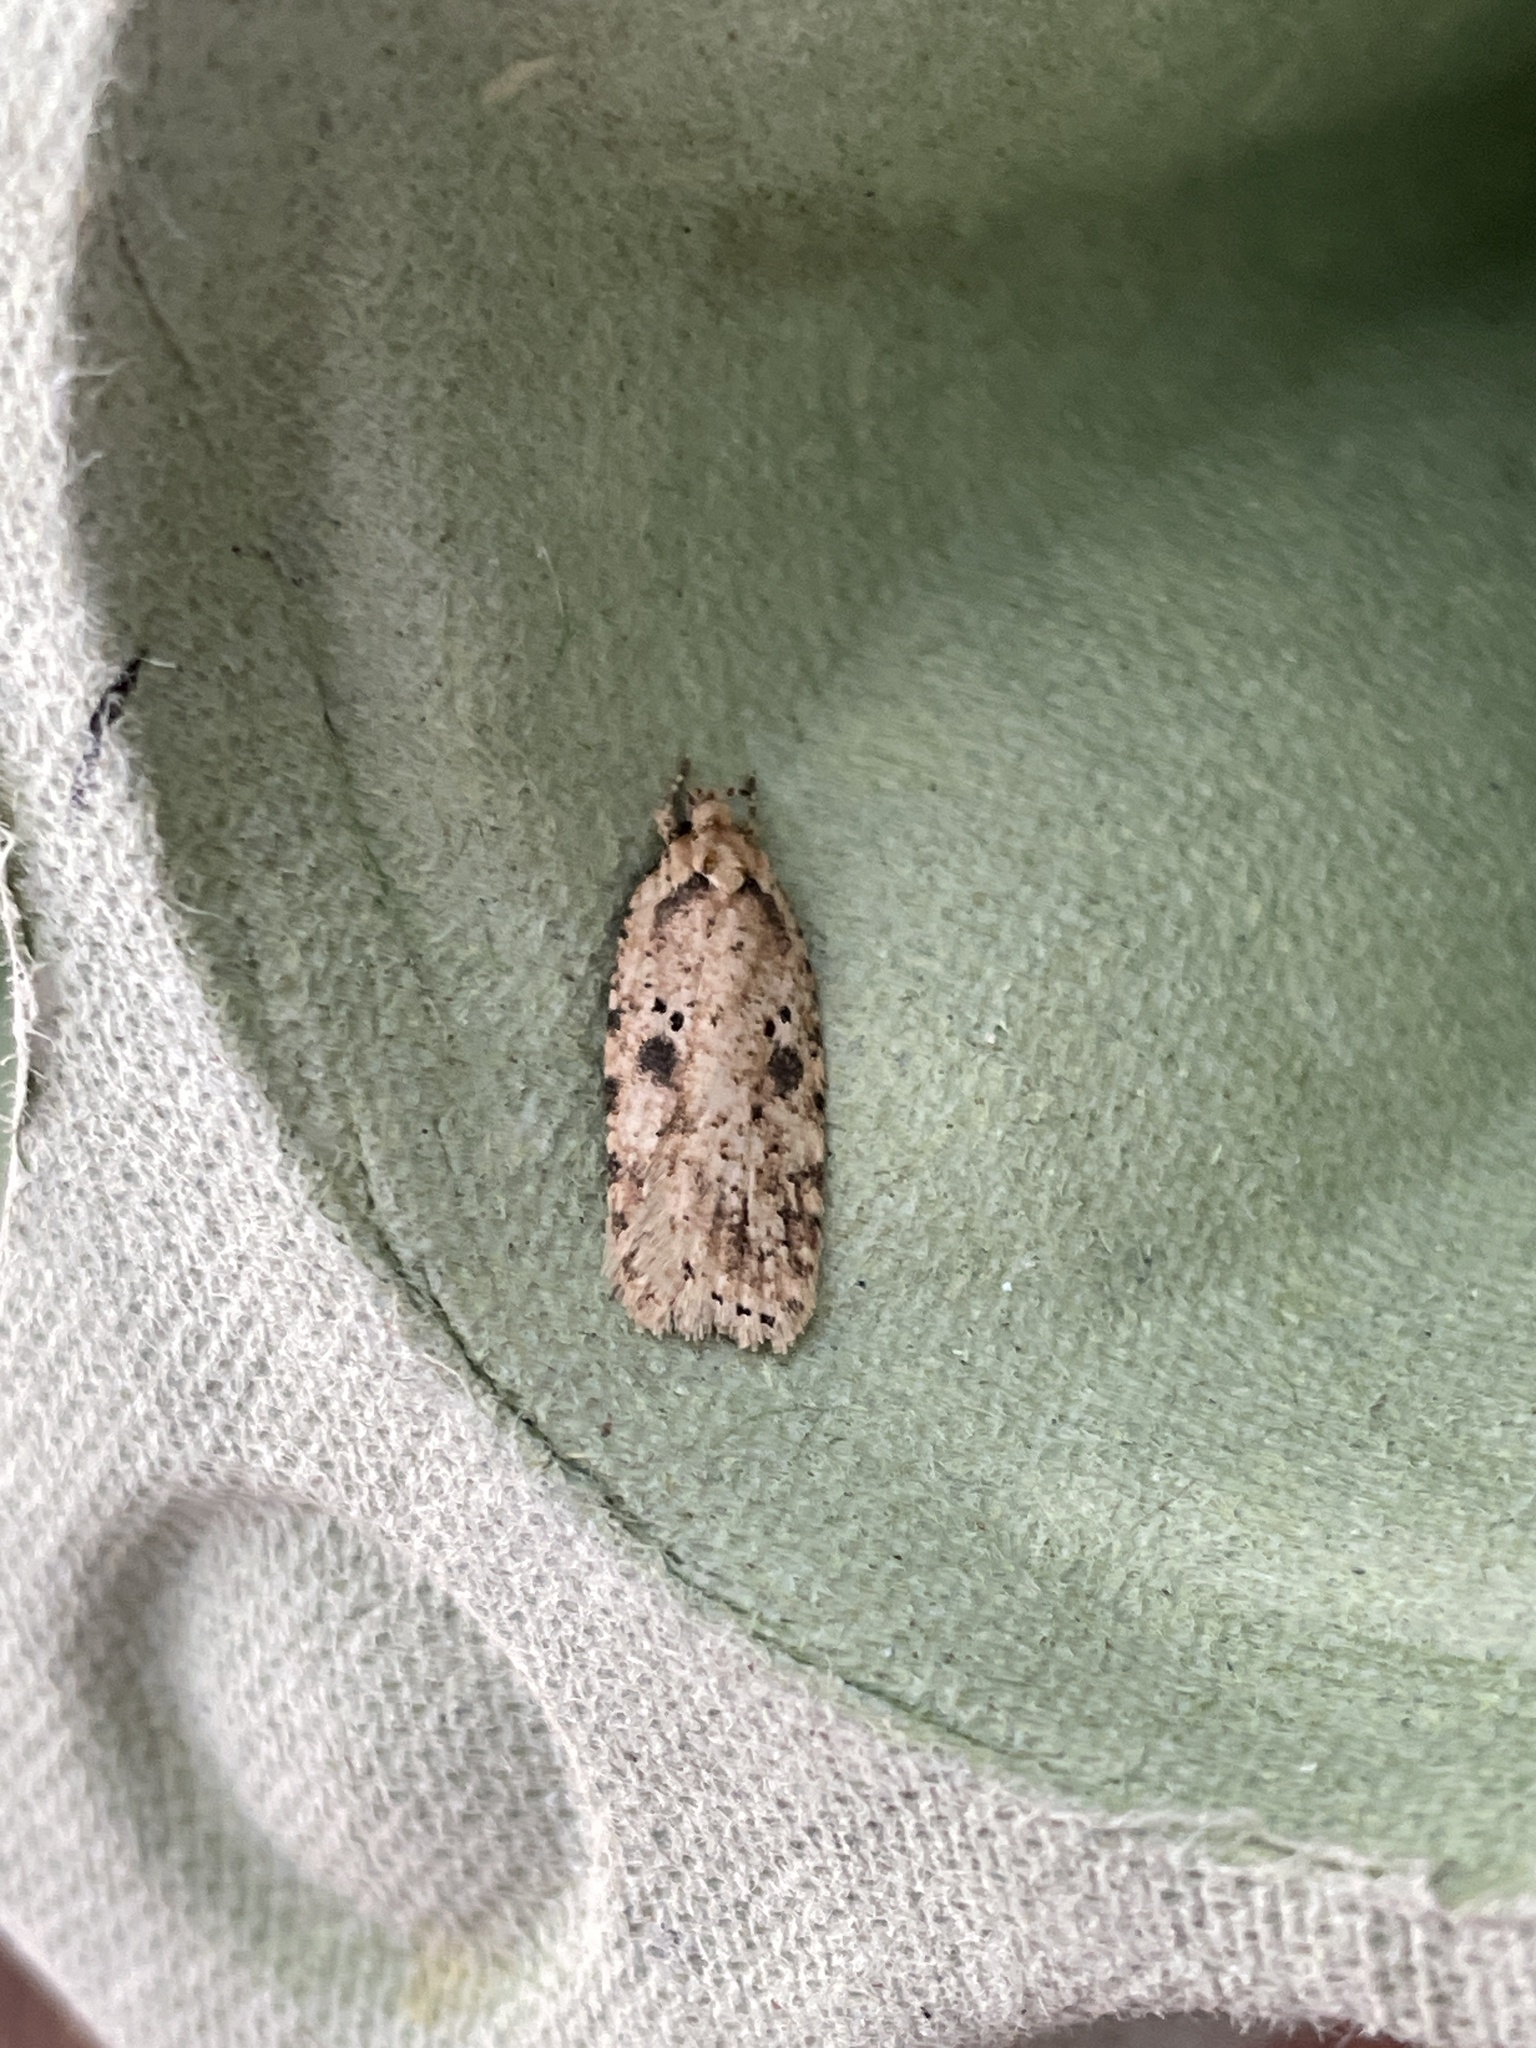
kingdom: Animalia
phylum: Arthropoda
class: Insecta
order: Lepidoptera
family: Depressariidae
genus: Agonopterix
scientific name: Agonopterix arenella
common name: Brindled flat-body
